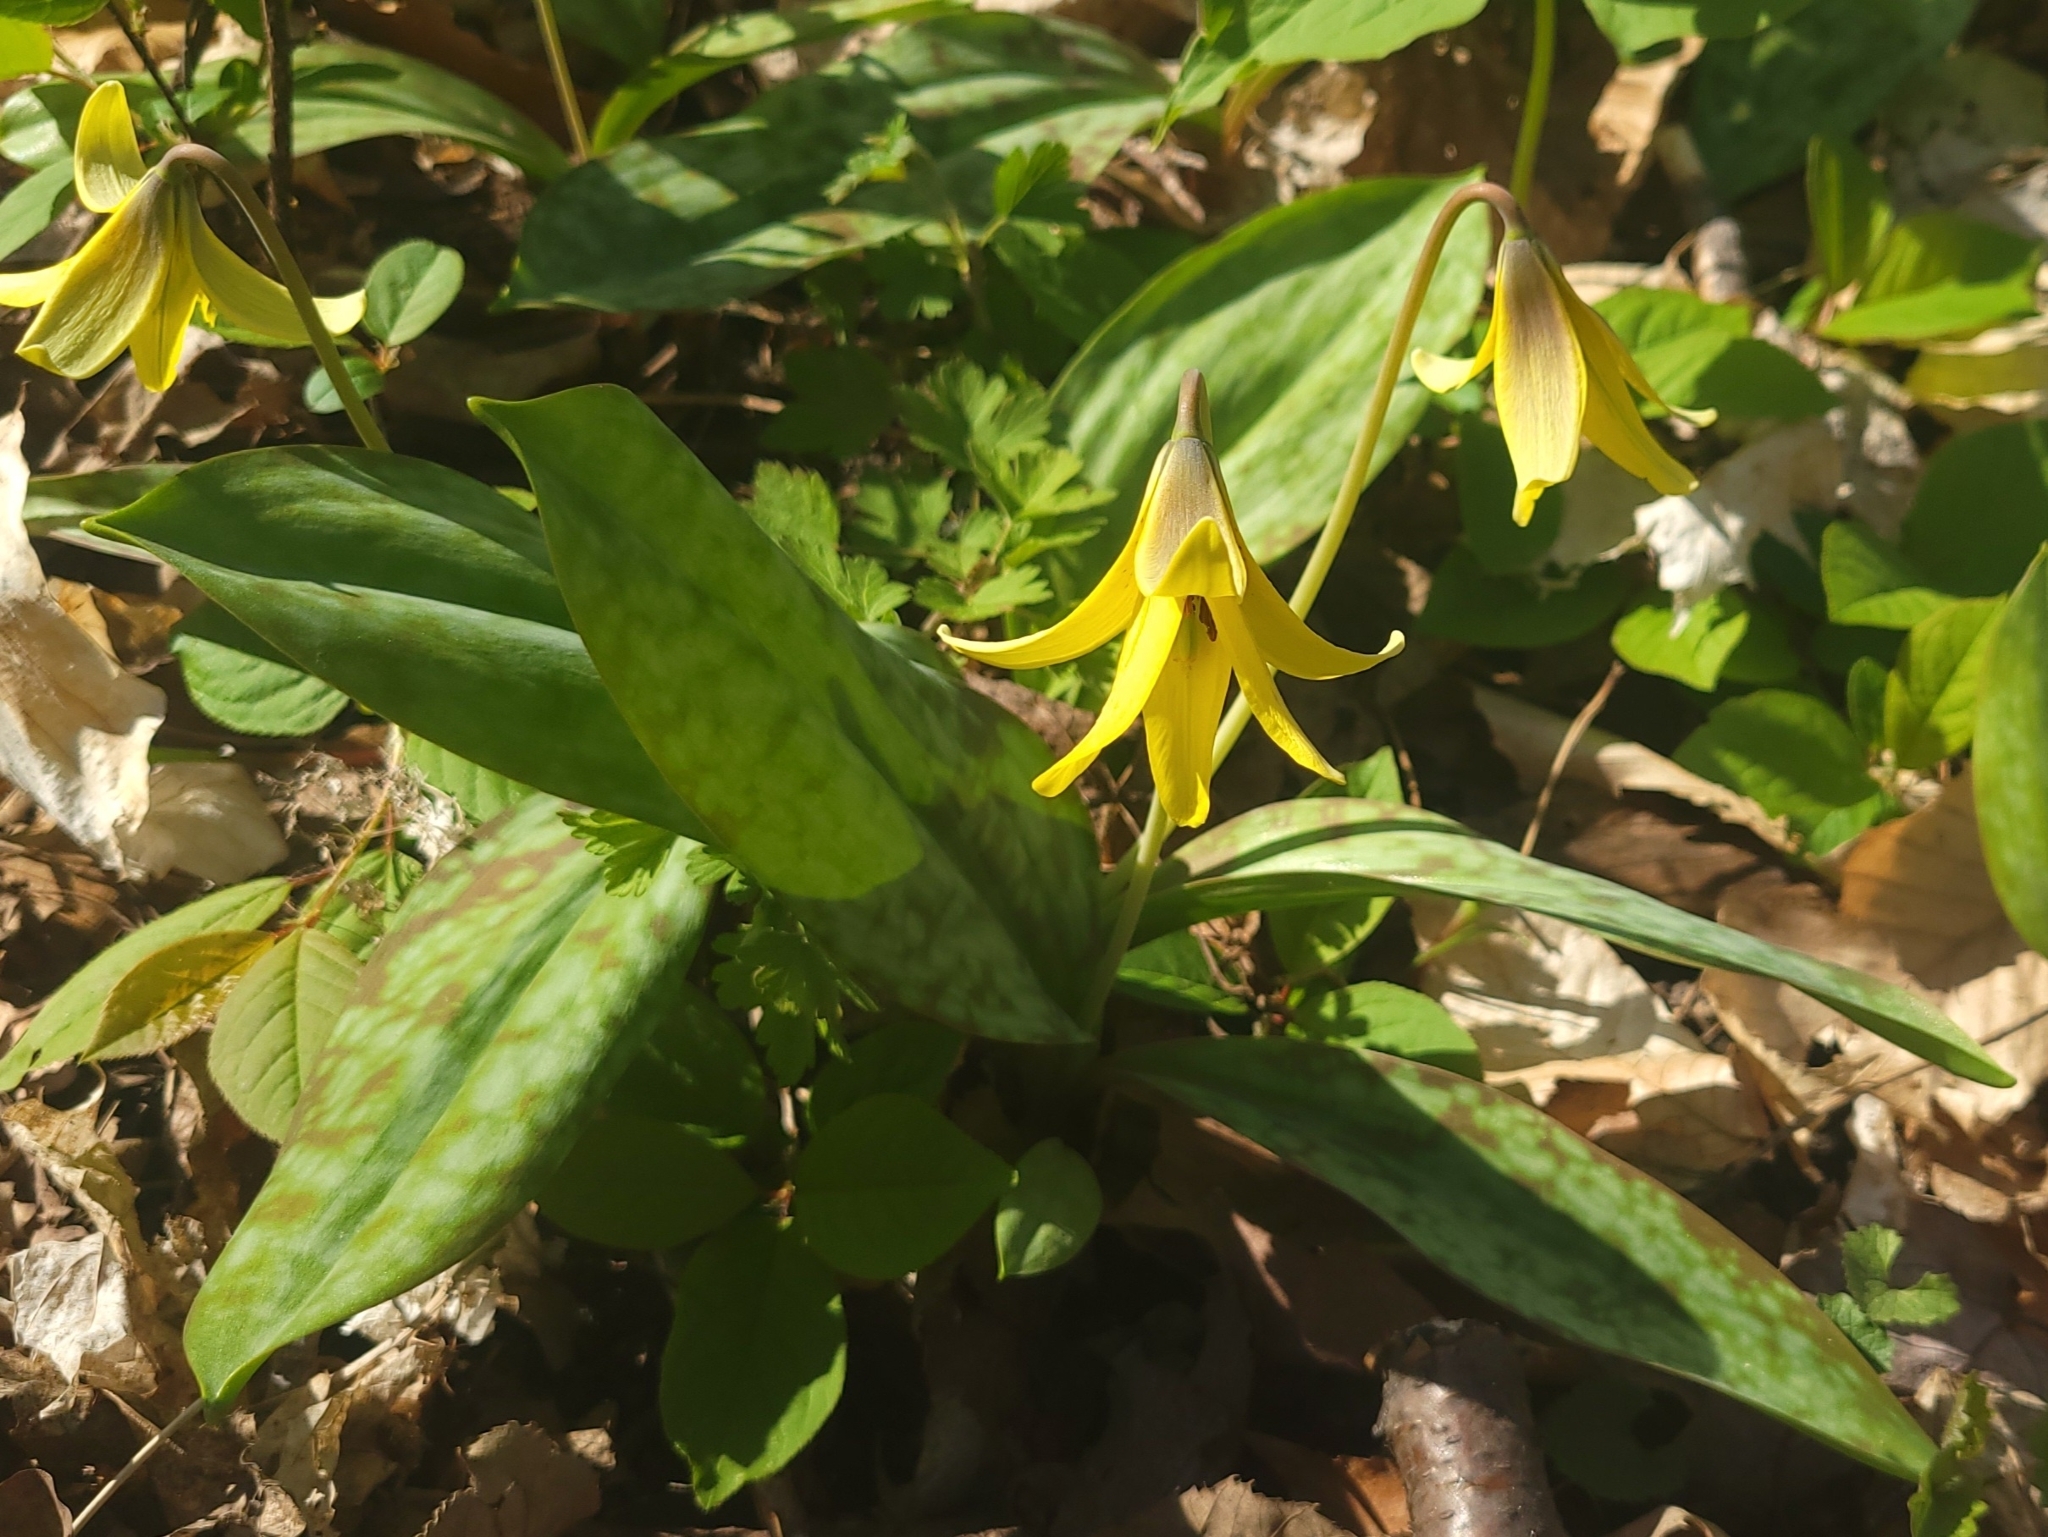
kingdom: Plantae
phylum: Tracheophyta
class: Liliopsida
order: Liliales
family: Liliaceae
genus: Erythronium
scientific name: Erythronium americanum
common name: Yellow adder's-tongue
